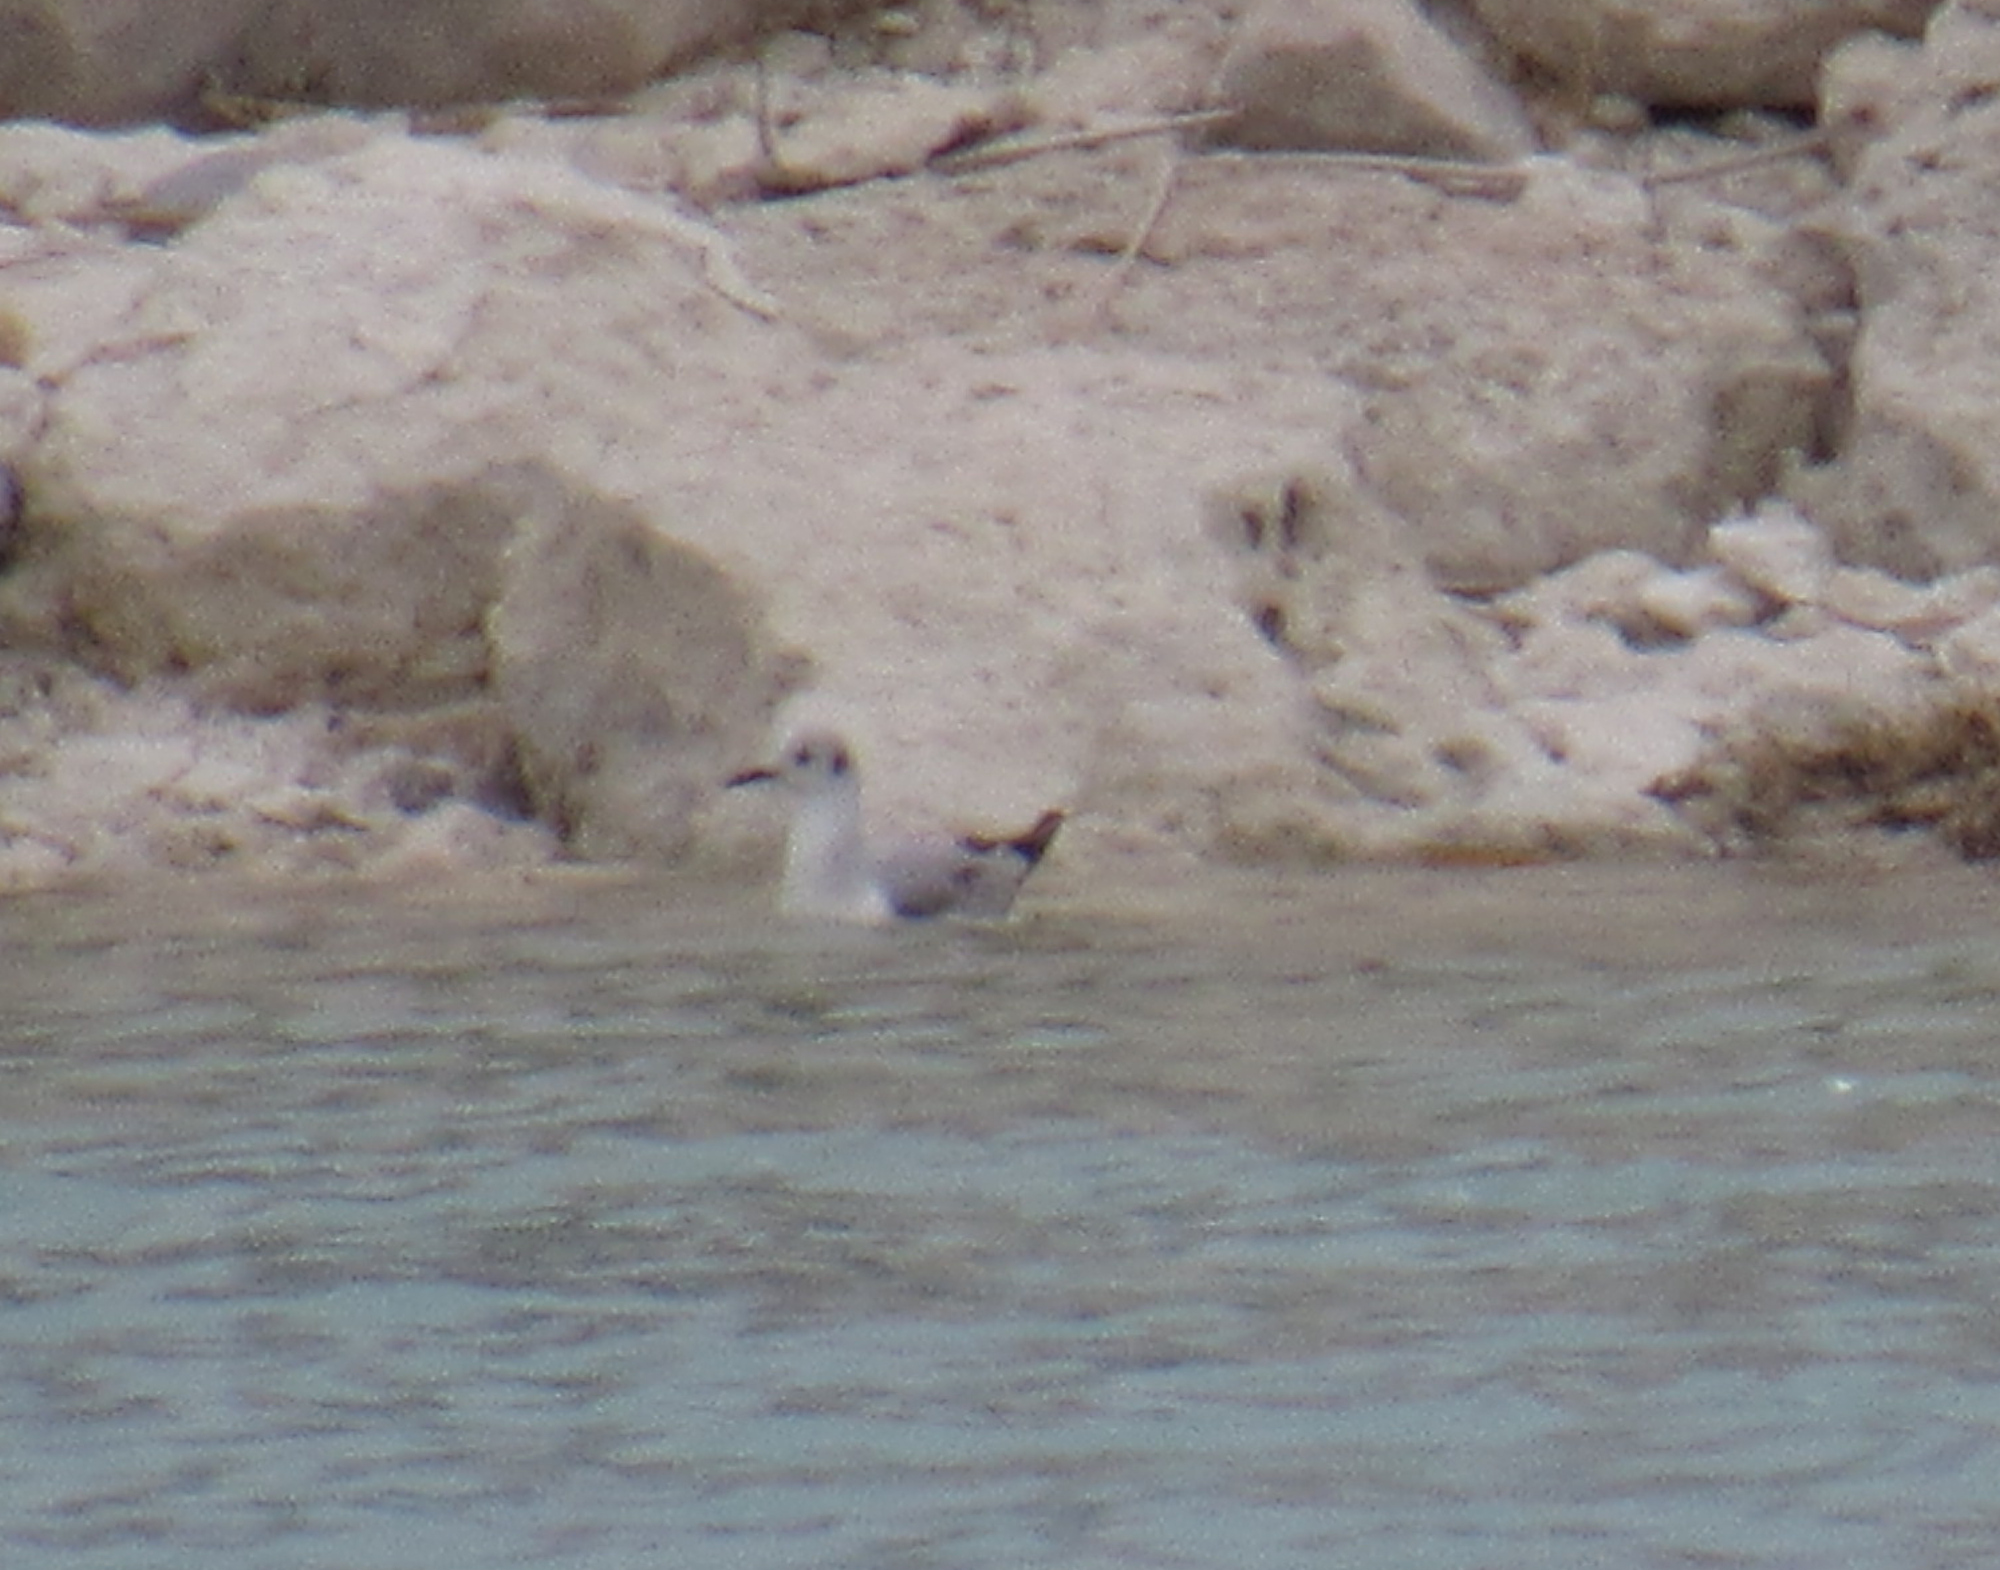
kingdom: Animalia
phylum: Chordata
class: Aves
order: Charadriiformes
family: Laridae
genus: Chroicocephalus
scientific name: Chroicocephalus philadelphia
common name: Bonaparte's gull
